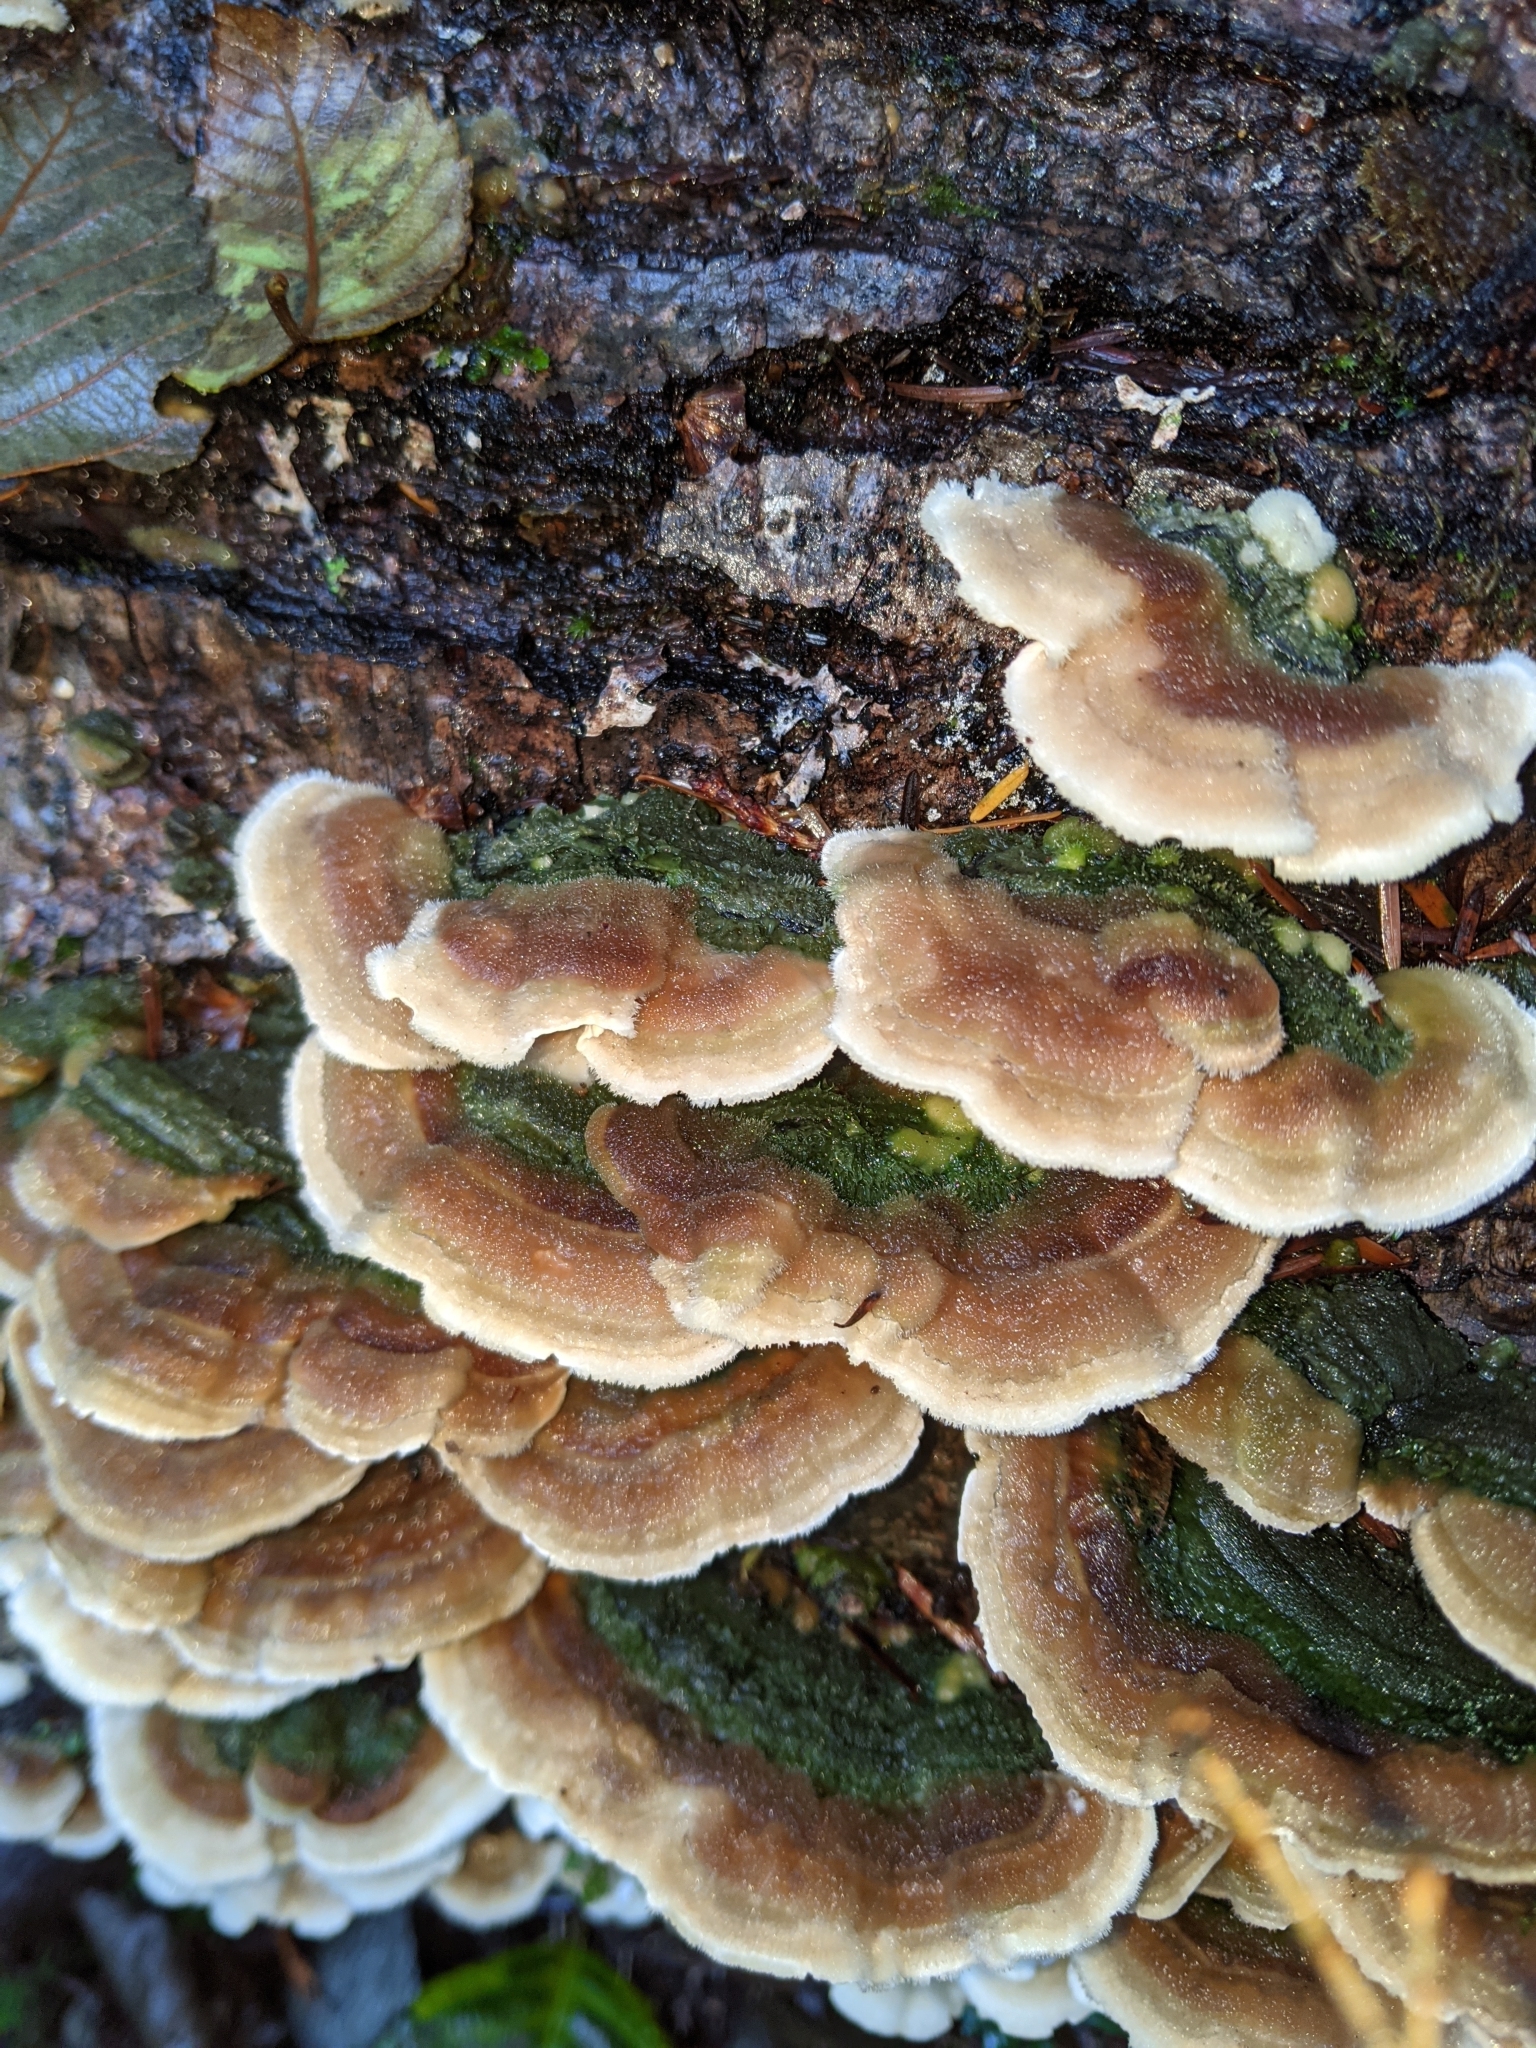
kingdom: Fungi
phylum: Basidiomycota
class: Agaricomycetes
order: Polyporales
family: Cerrenaceae
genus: Cerrena
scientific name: Cerrena unicolor
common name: Mossy maze polypore
